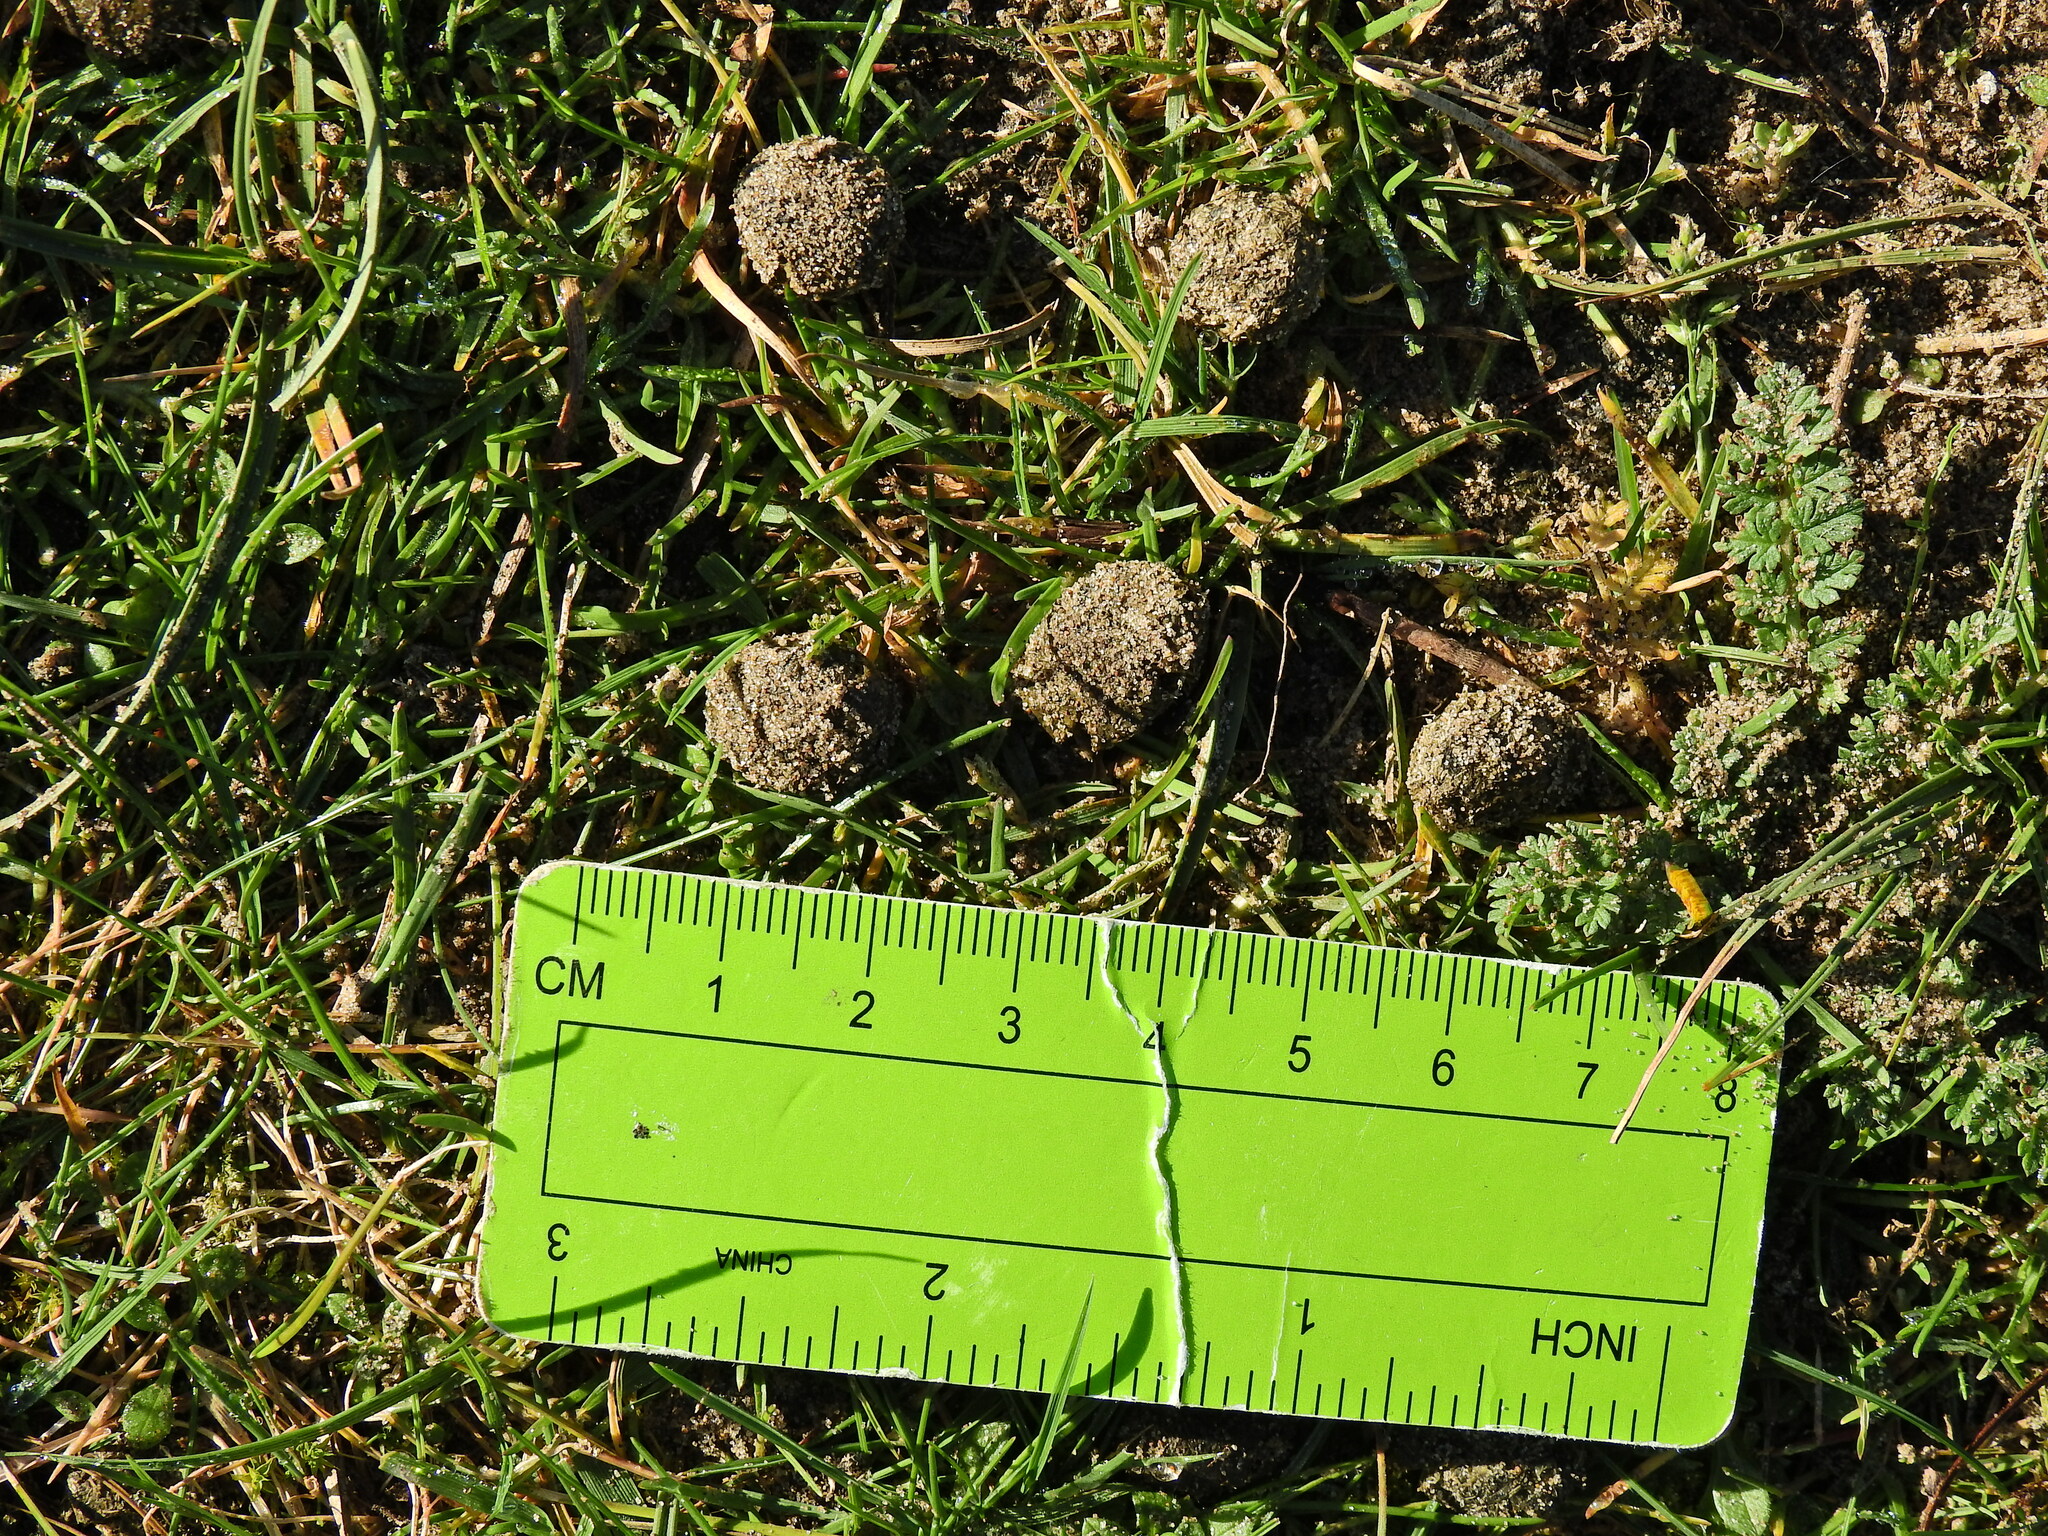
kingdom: Animalia
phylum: Chordata
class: Mammalia
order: Lagomorpha
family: Leporidae
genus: Oryctolagus
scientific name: Oryctolagus cuniculus
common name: European rabbit
